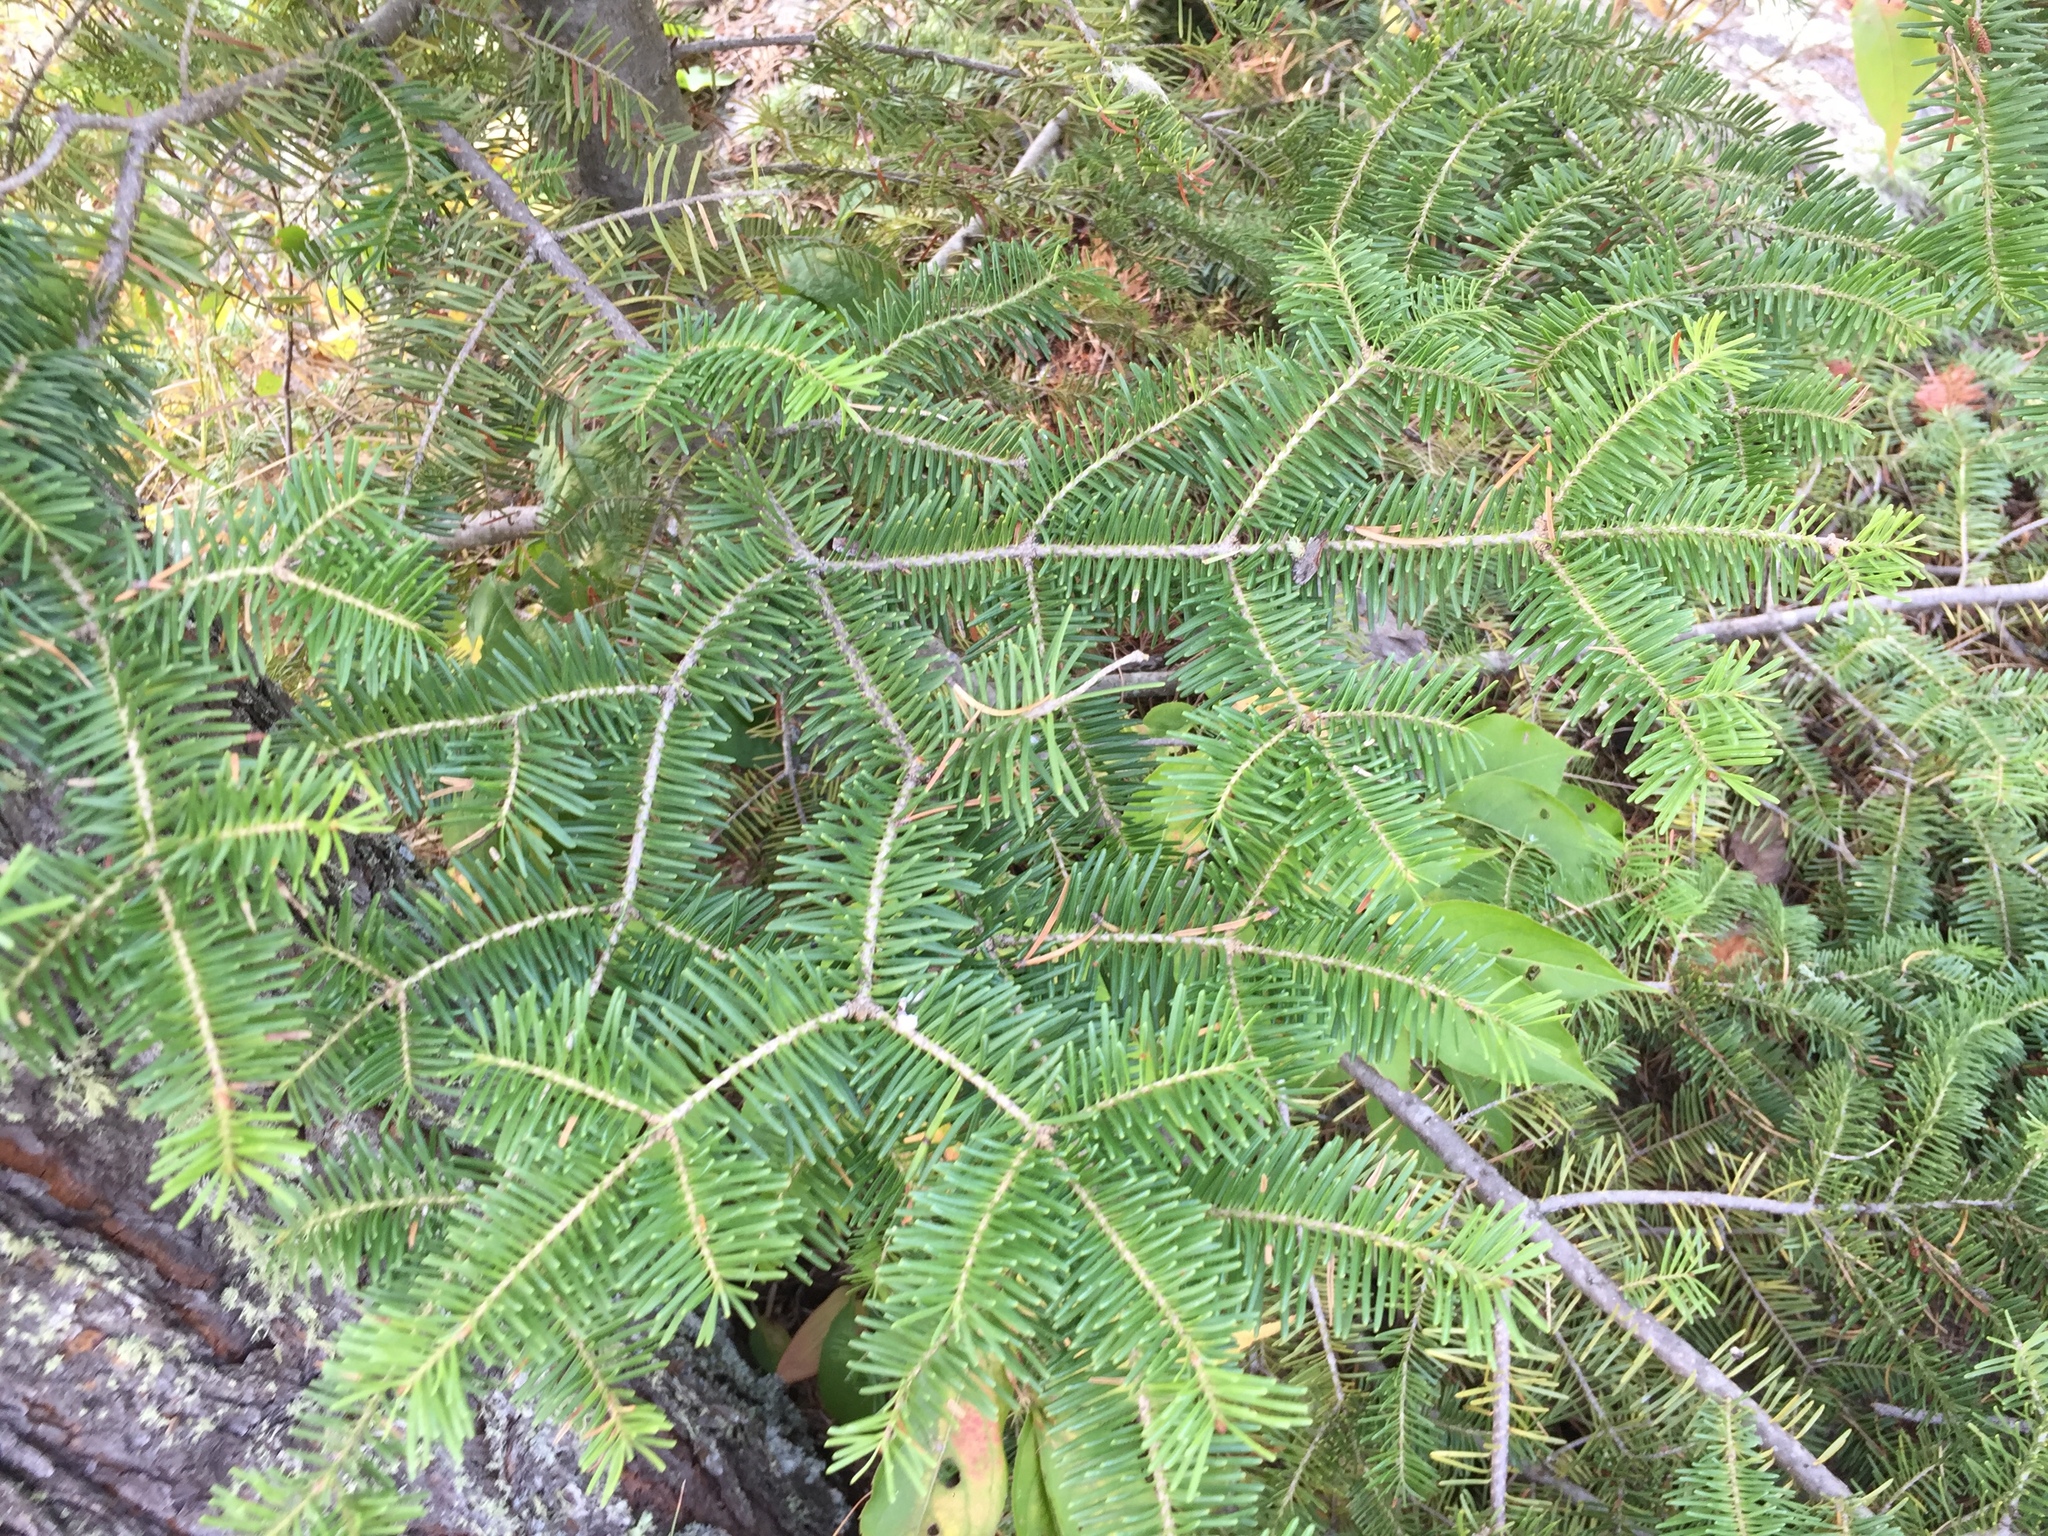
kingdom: Plantae
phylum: Tracheophyta
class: Pinopsida
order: Pinales
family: Pinaceae
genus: Abies
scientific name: Abies balsamea
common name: Balsam fir
